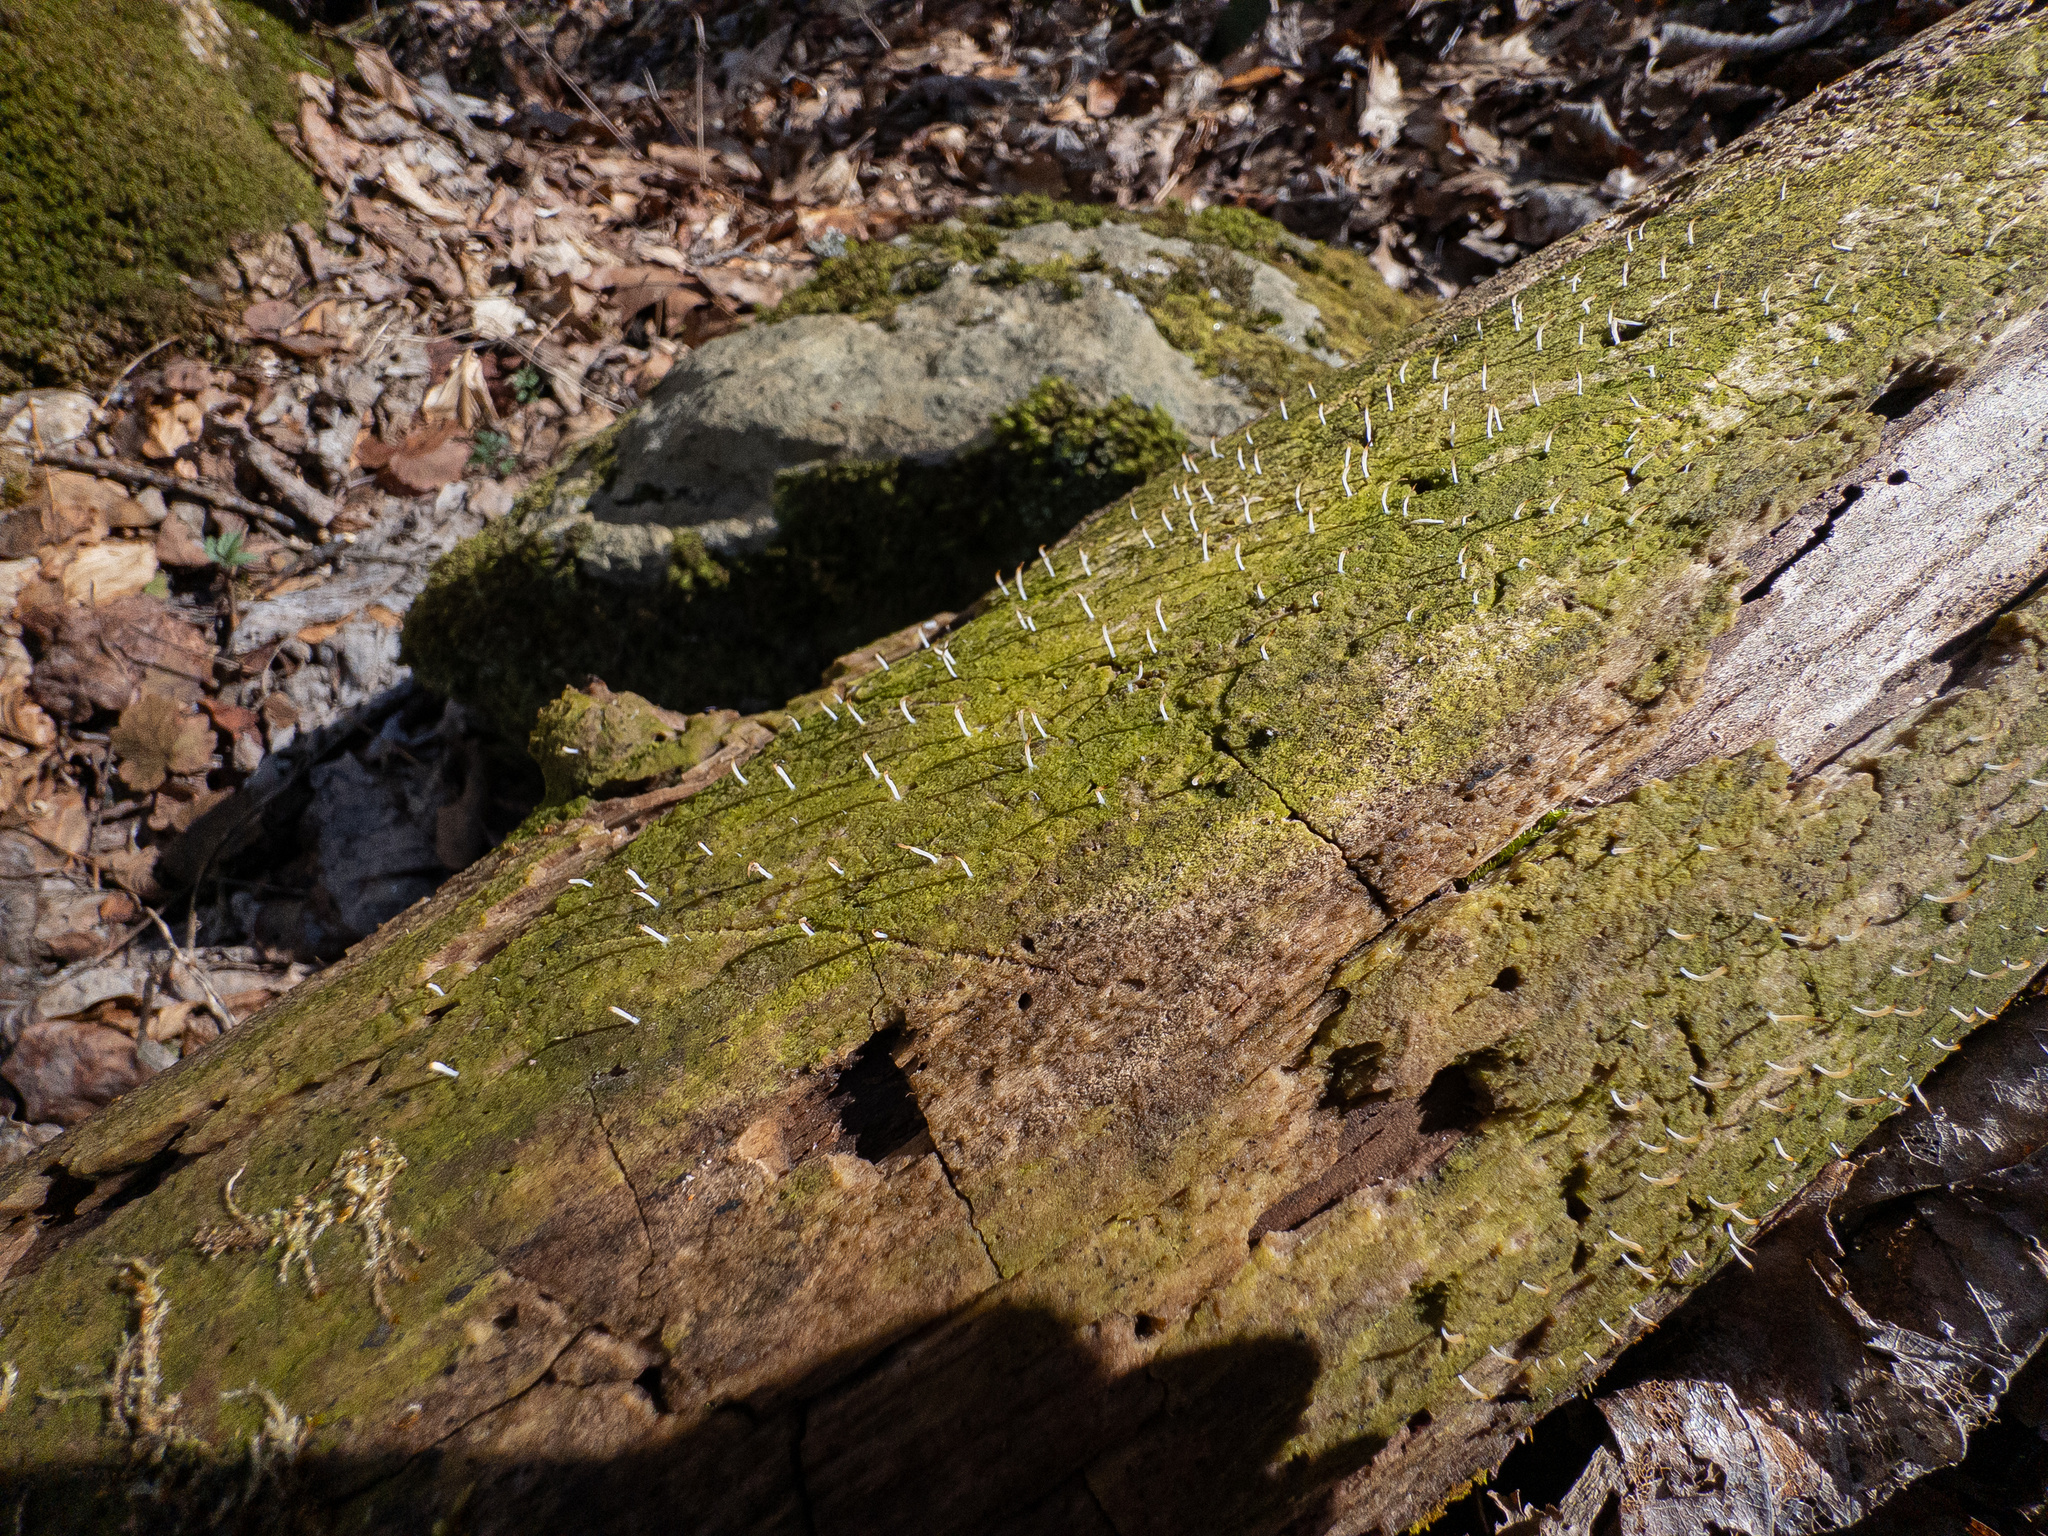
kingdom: Fungi
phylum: Basidiomycota
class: Agaricomycetes
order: Cantharellales
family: Hydnaceae
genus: Multiclavula
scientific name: Multiclavula mucida
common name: White green-algae coral
